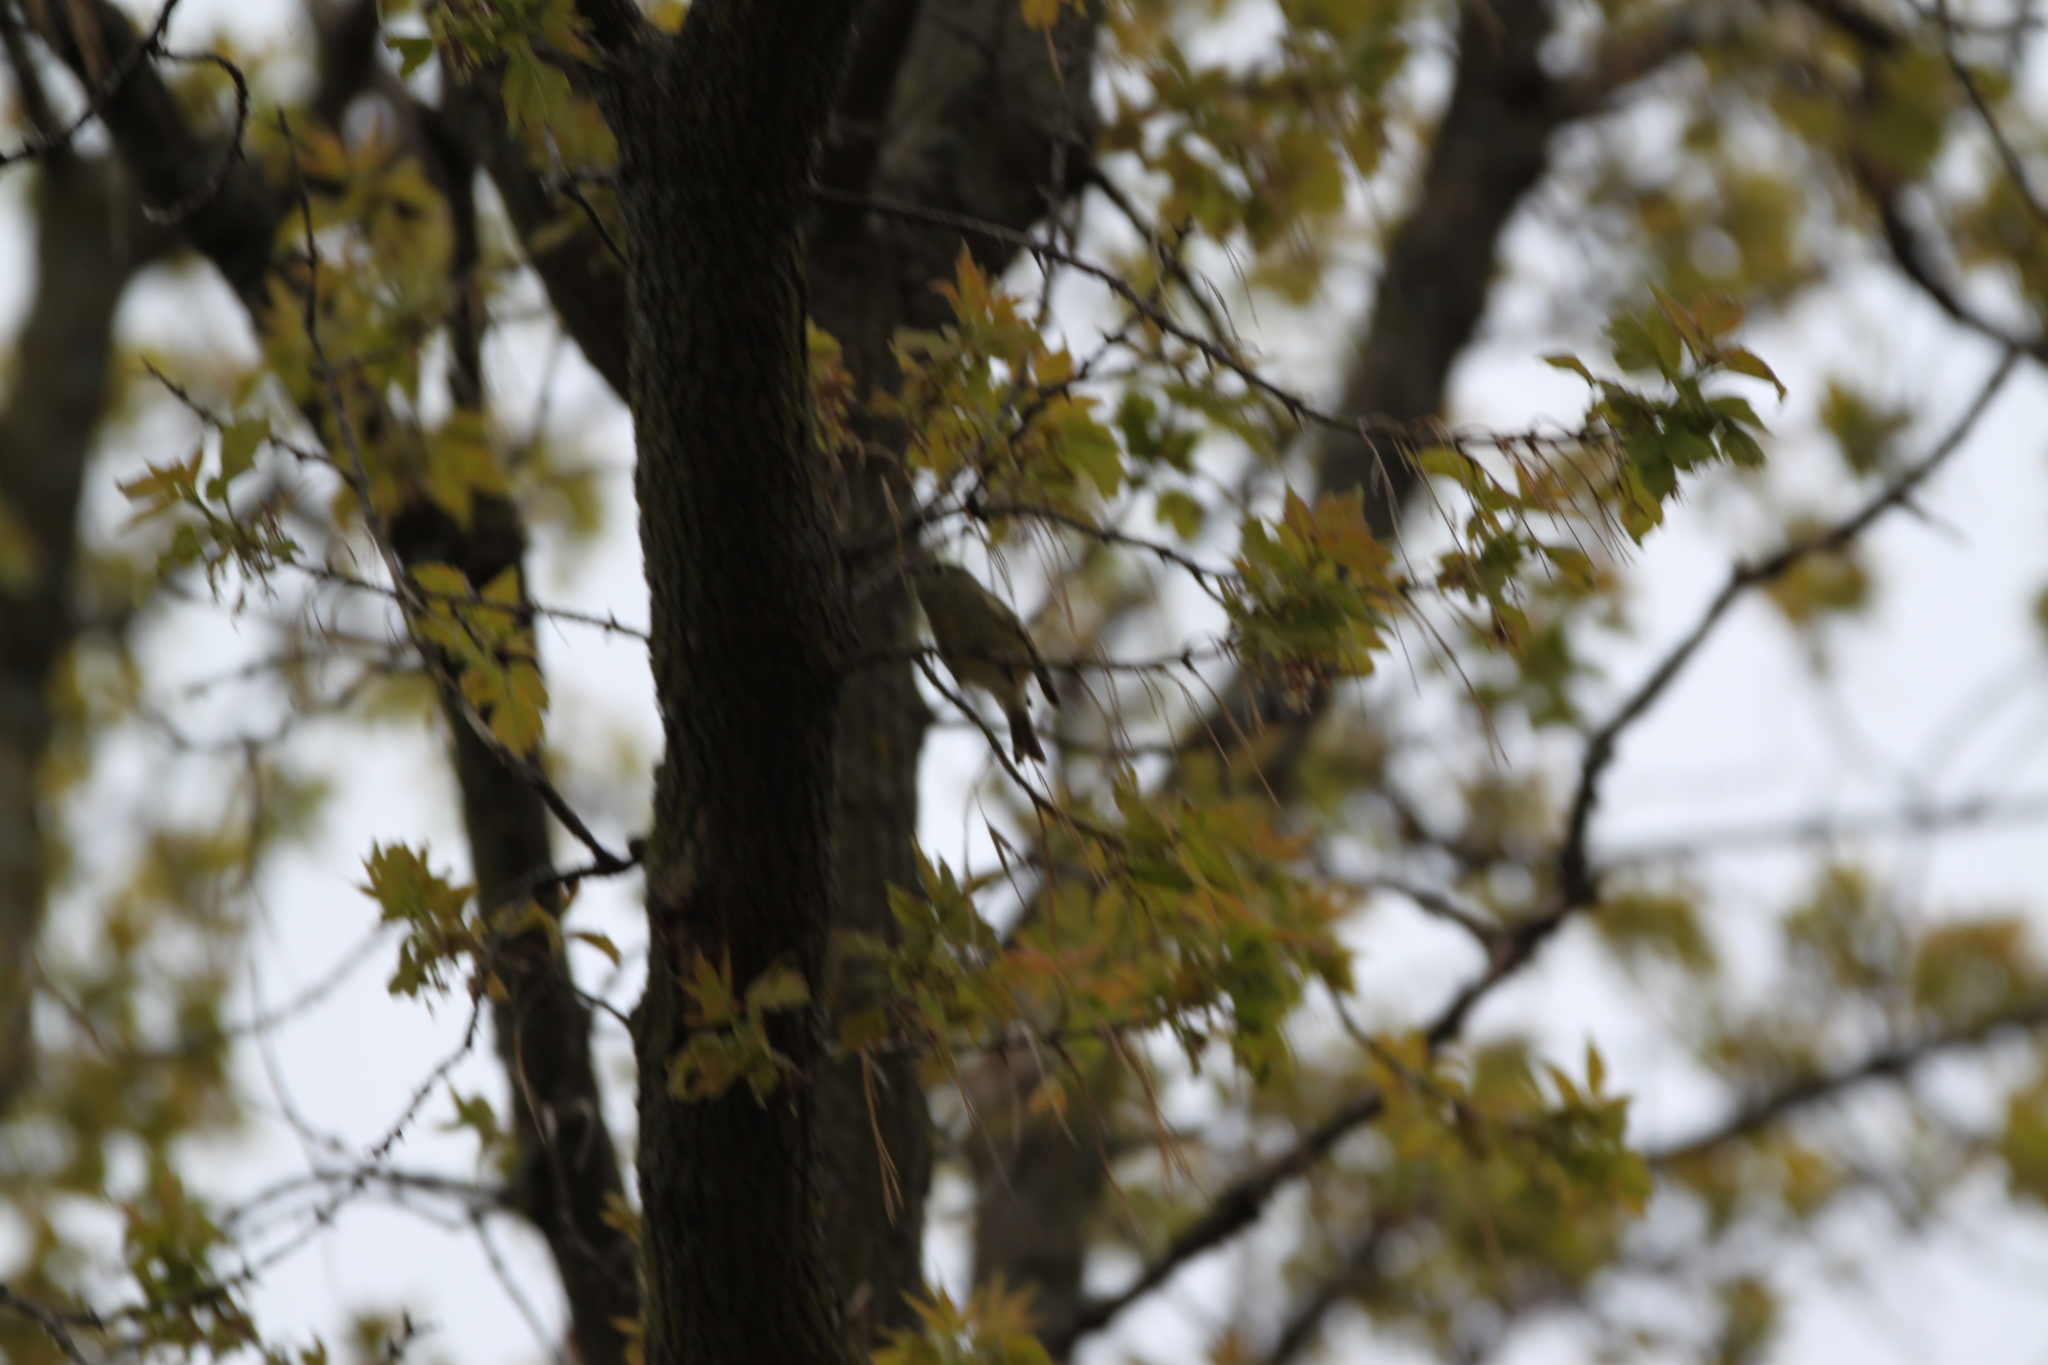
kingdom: Animalia
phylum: Chordata
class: Aves
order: Passeriformes
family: Regulidae
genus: Regulus
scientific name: Regulus calendula
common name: Ruby-crowned kinglet
